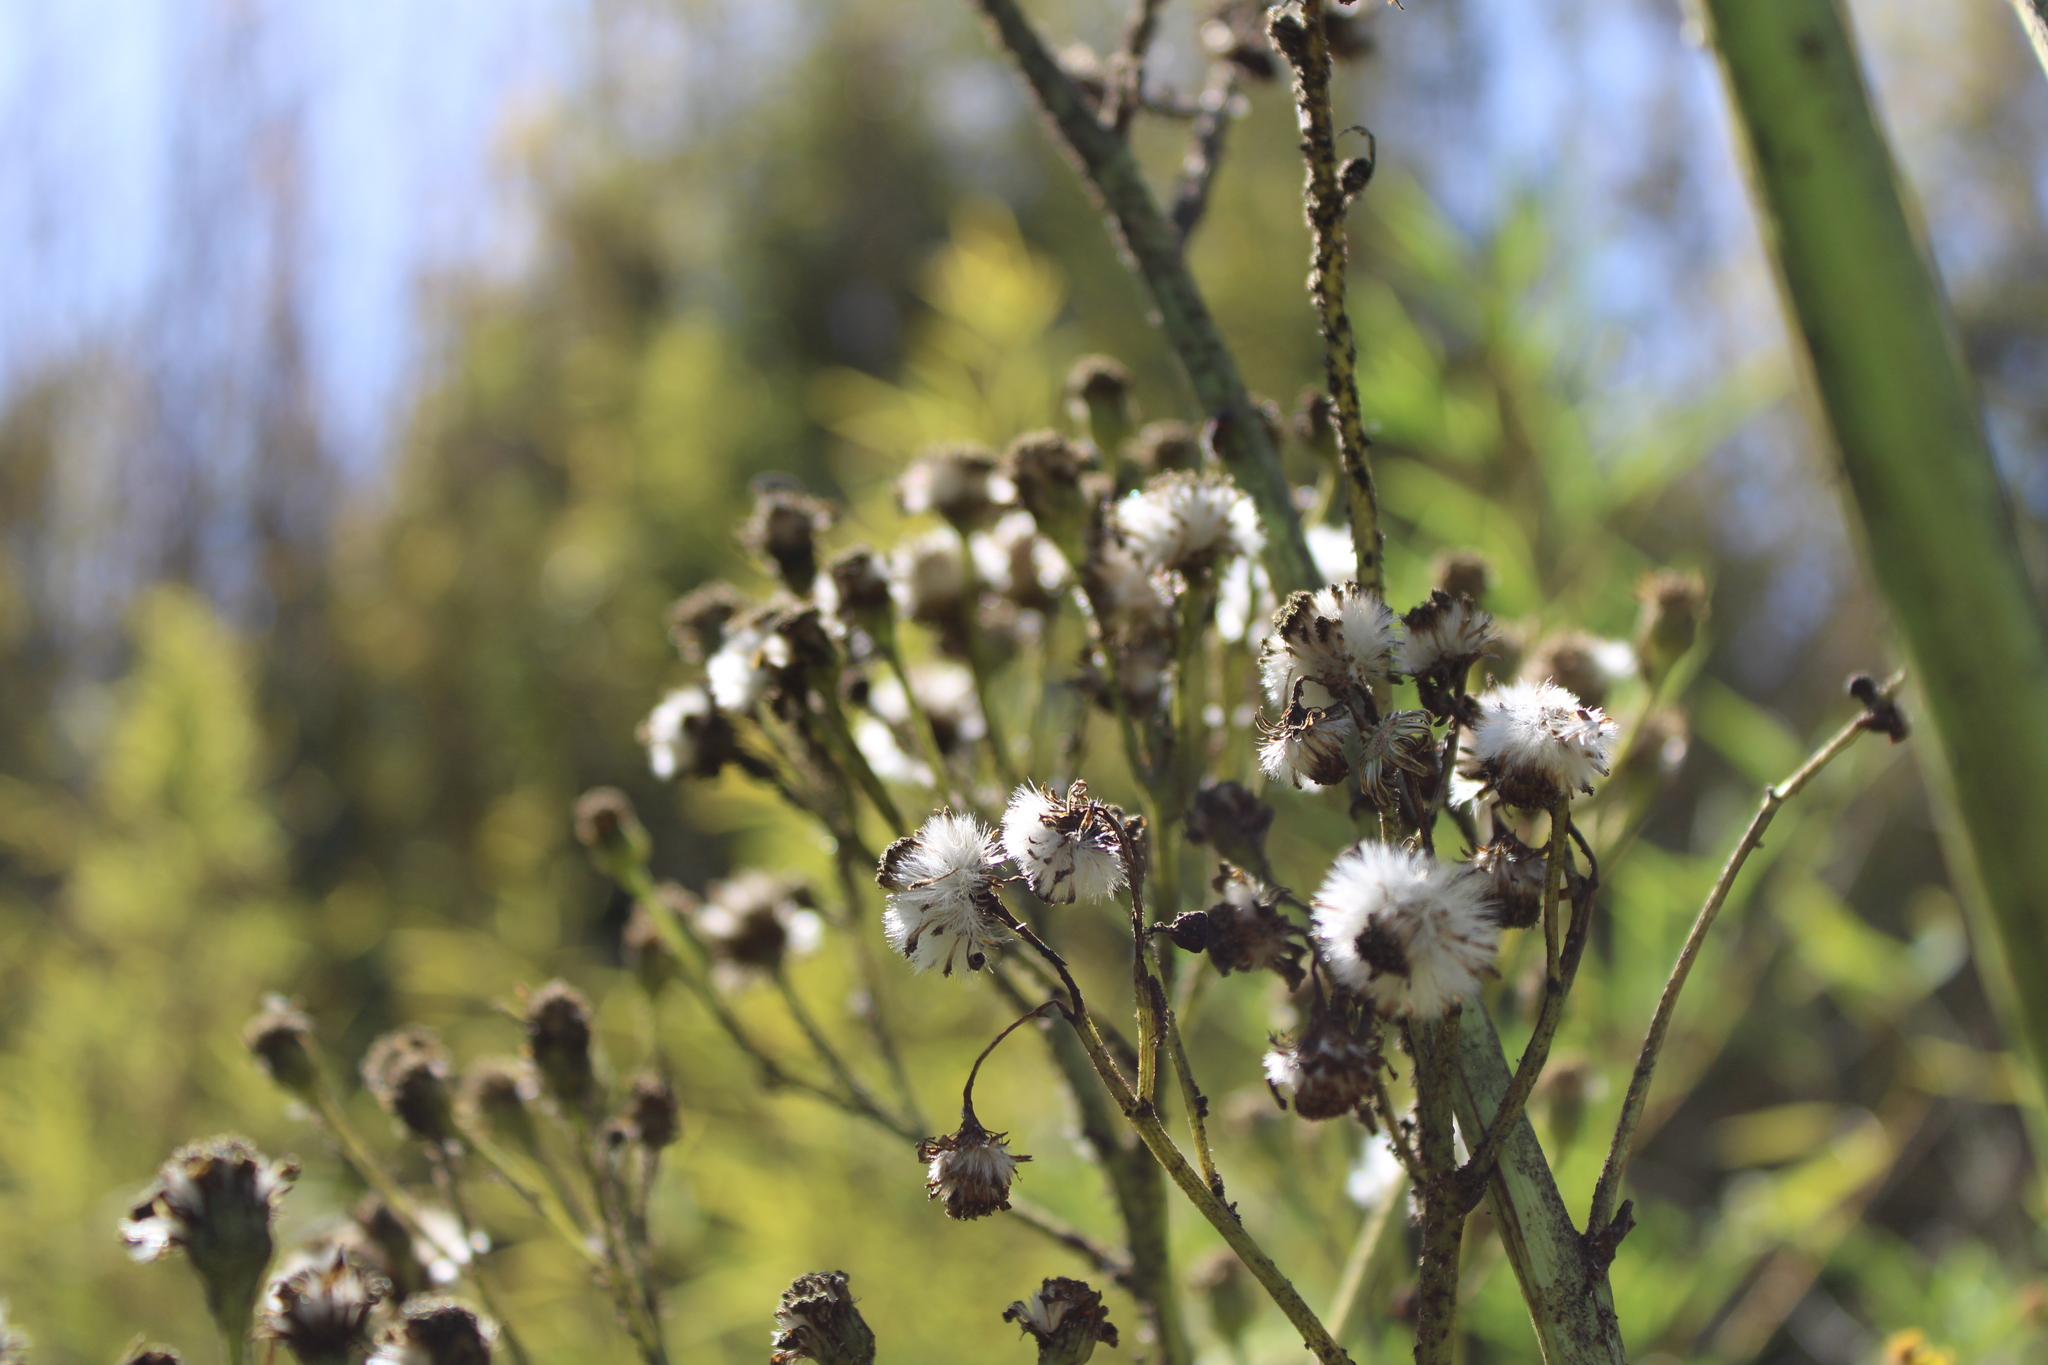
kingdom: Plantae
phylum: Tracheophyta
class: Magnoliopsida
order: Asterales
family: Asteraceae
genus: Senecio
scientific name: Senecio brasiliensis
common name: Hemp-leaf ragwort
